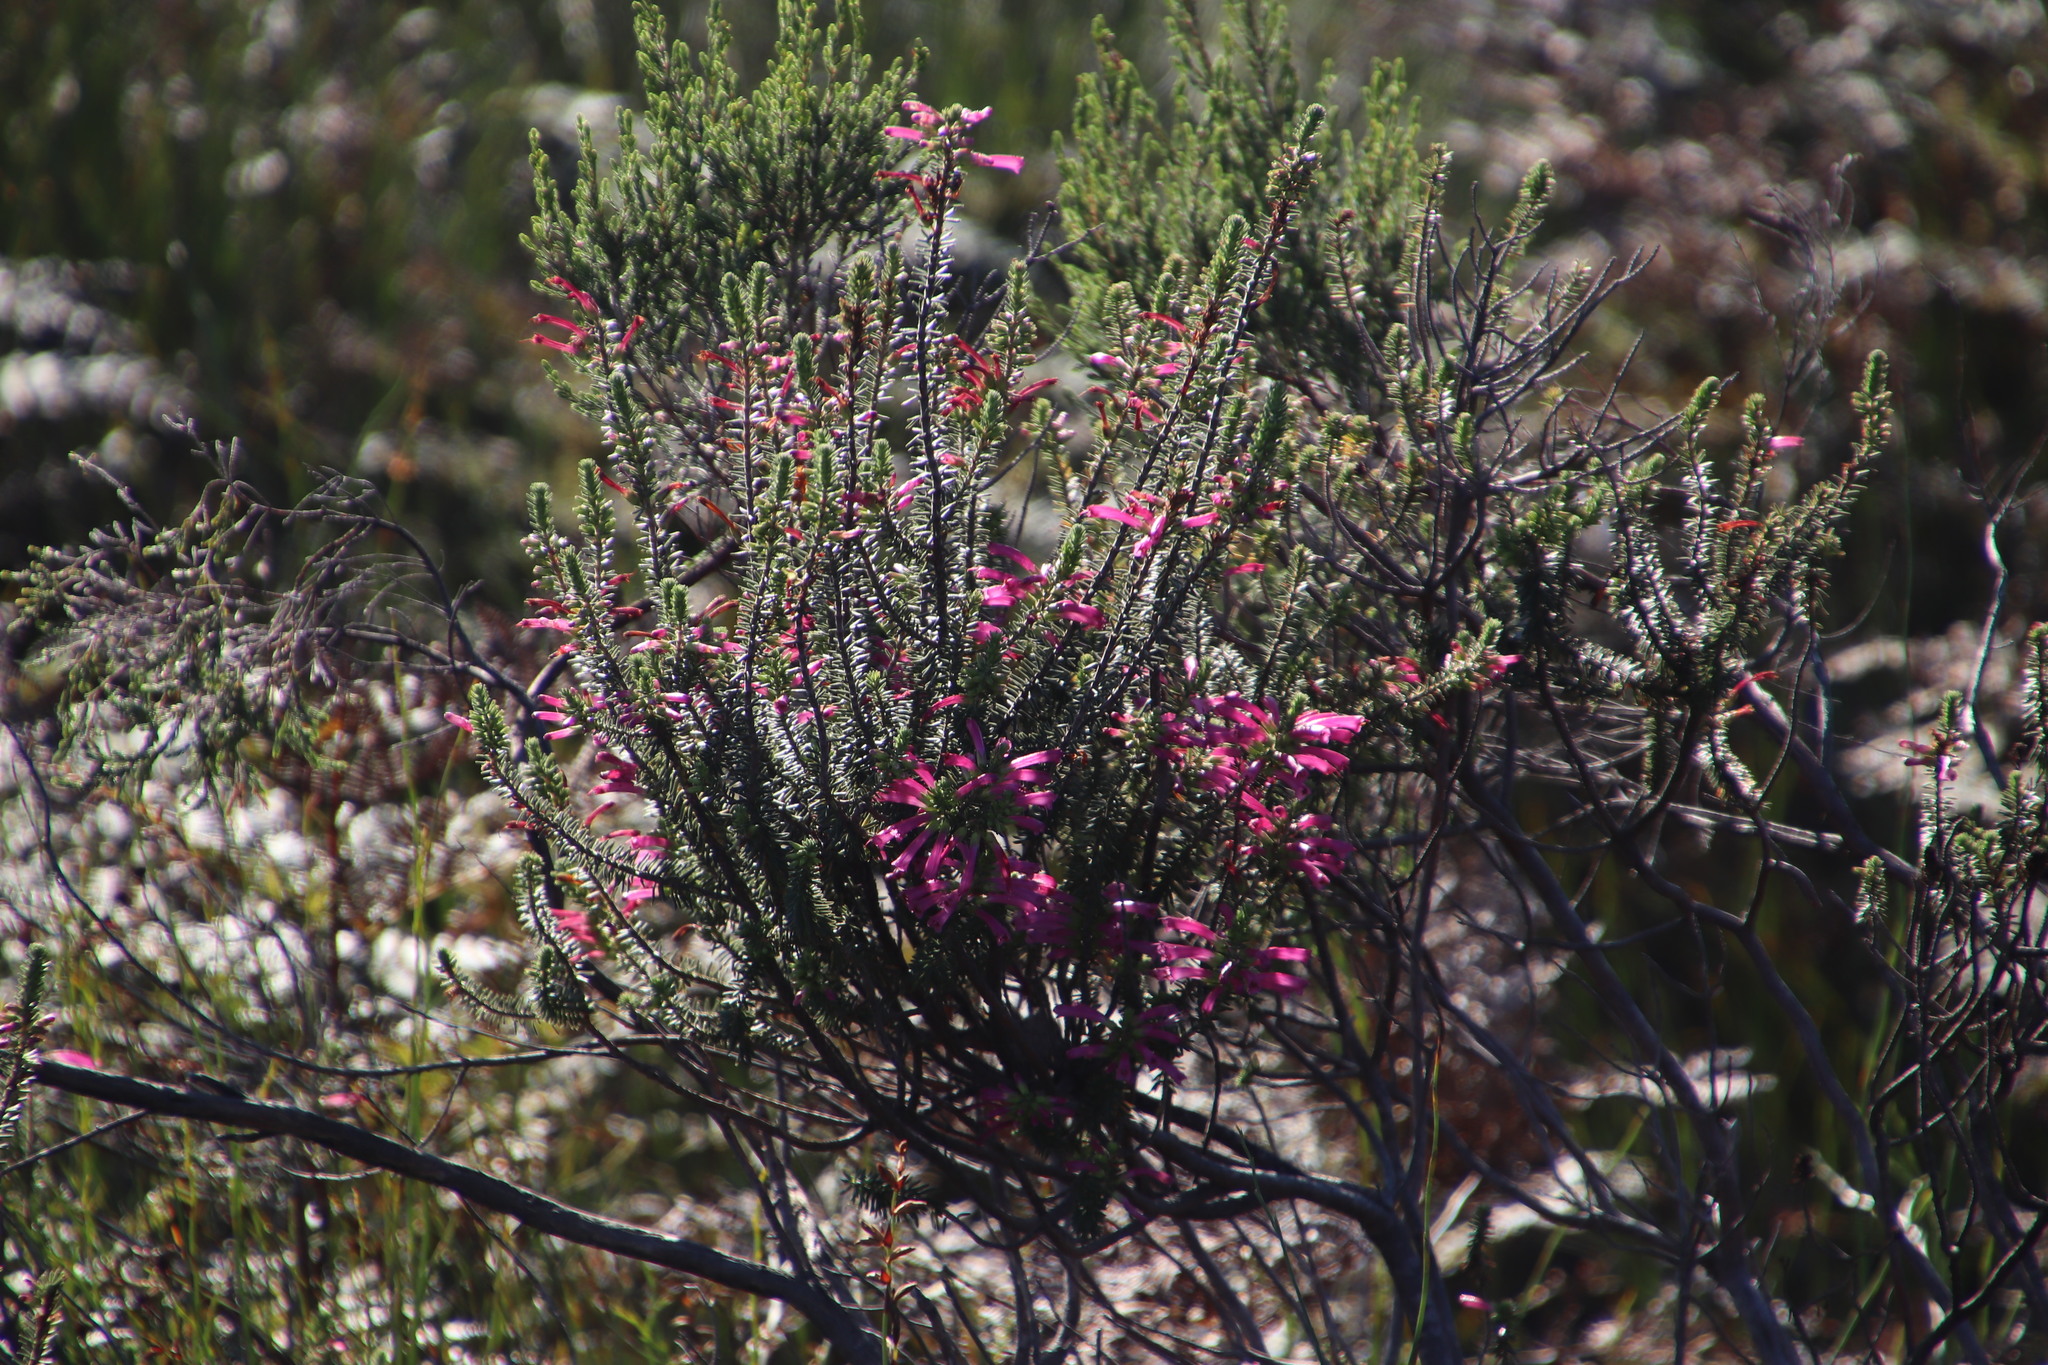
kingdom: Plantae
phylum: Tracheophyta
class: Magnoliopsida
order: Ericales
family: Ericaceae
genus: Erica
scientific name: Erica abietina
